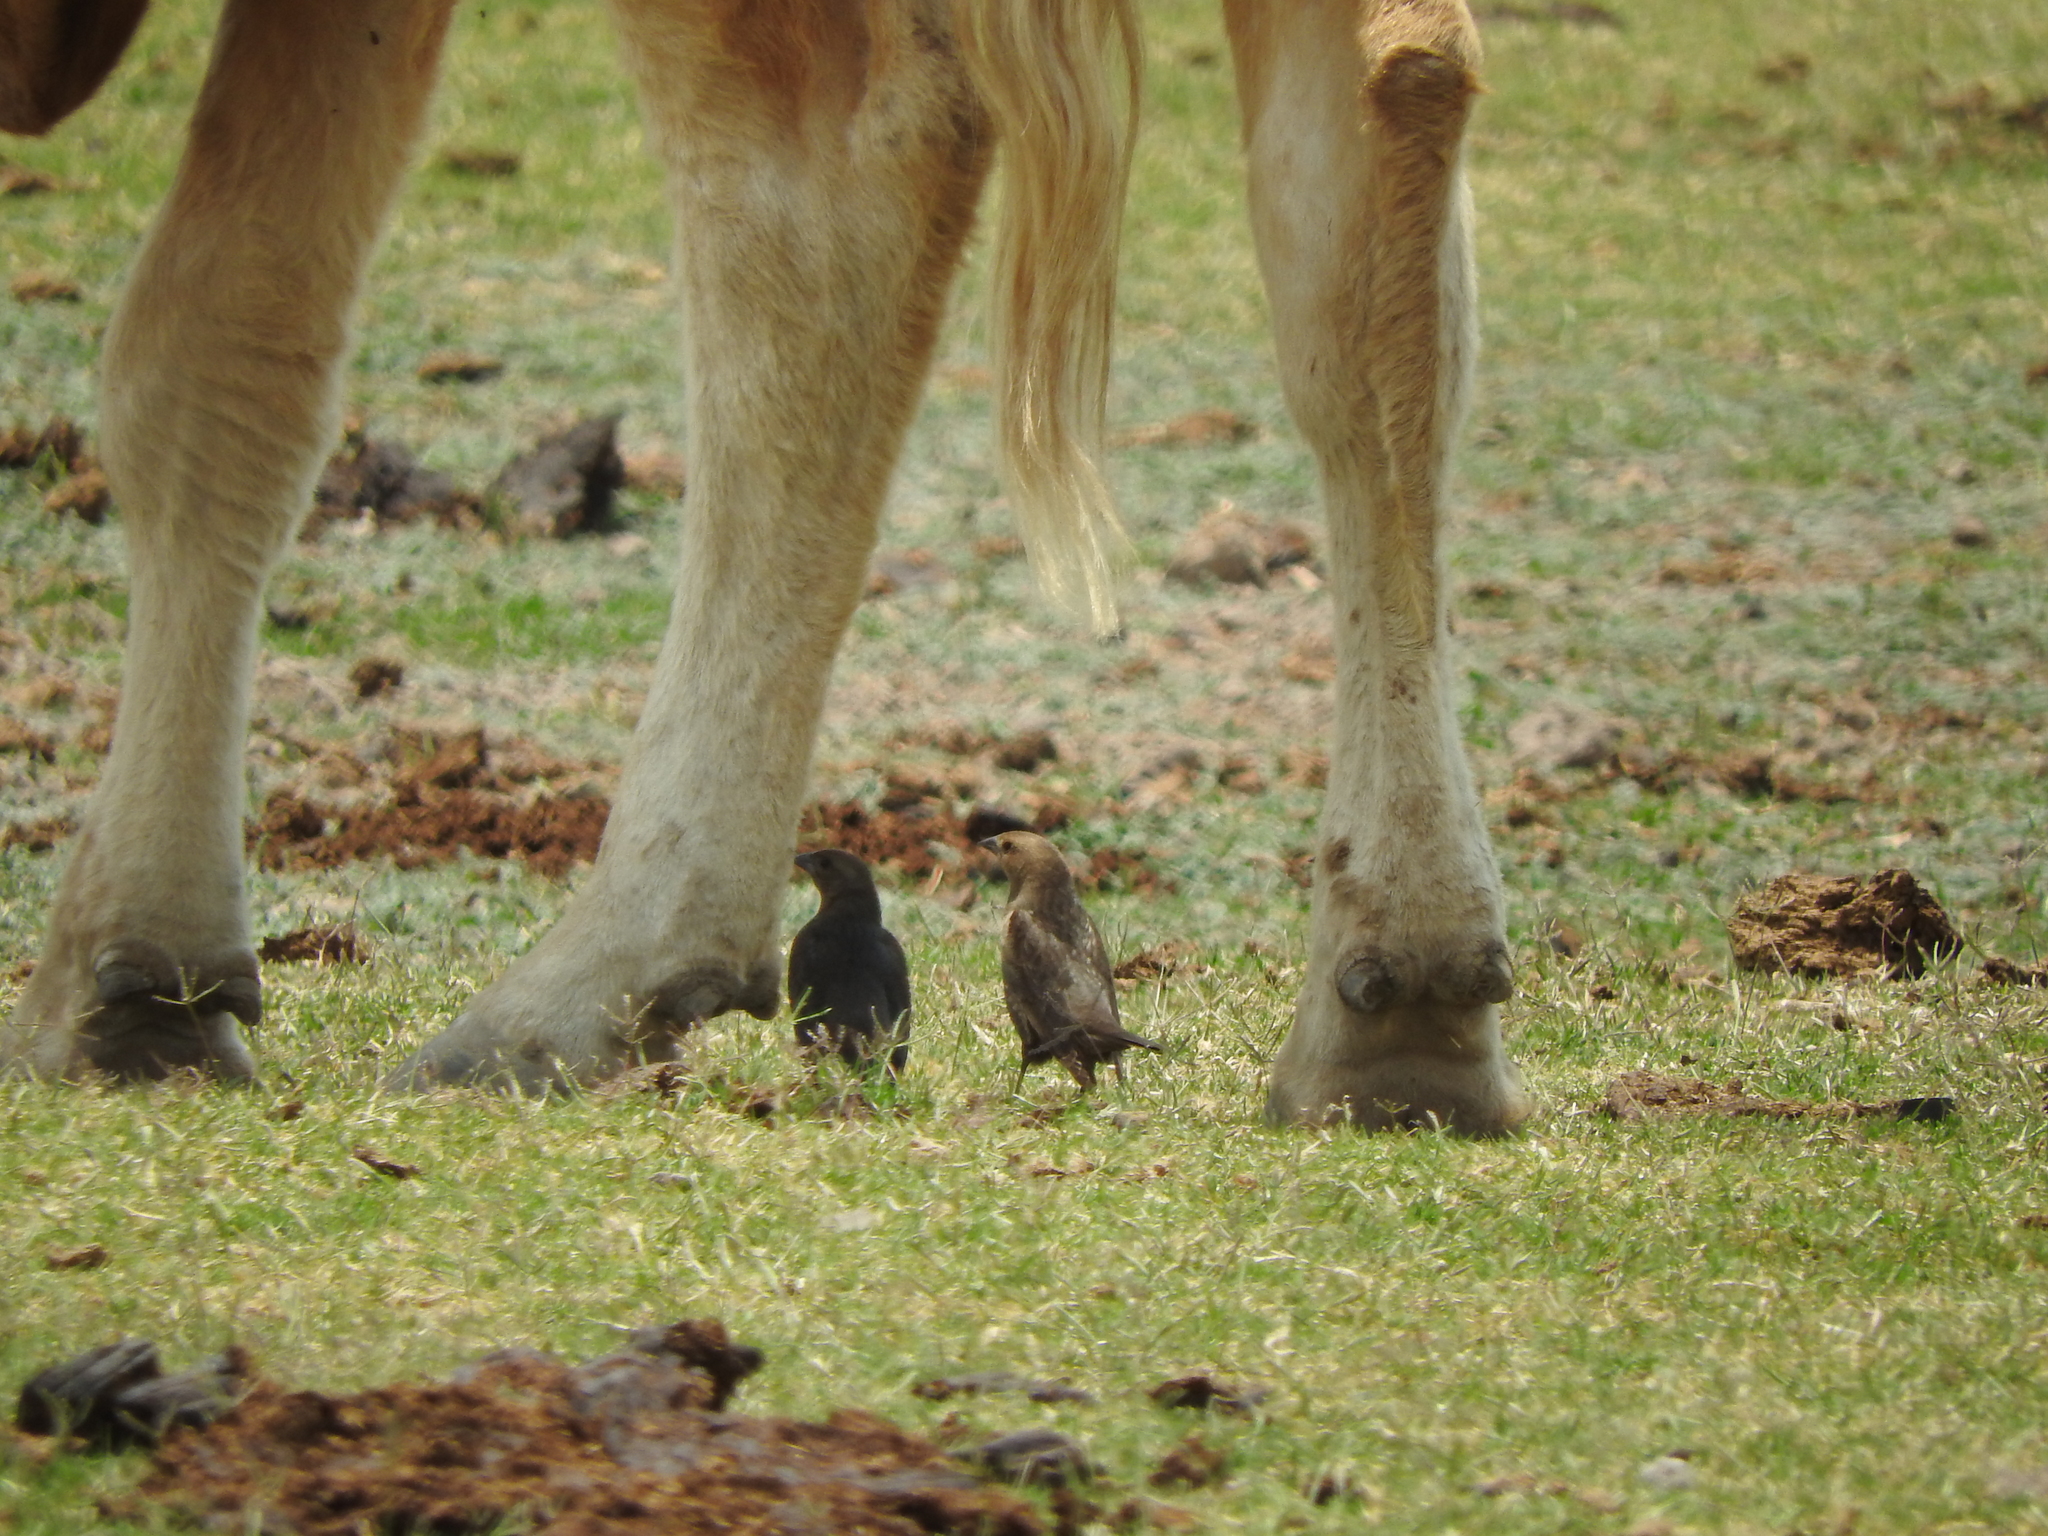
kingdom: Animalia
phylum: Chordata
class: Aves
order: Passeriformes
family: Icteridae
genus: Molothrus
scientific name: Molothrus ater
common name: Brown-headed cowbird
